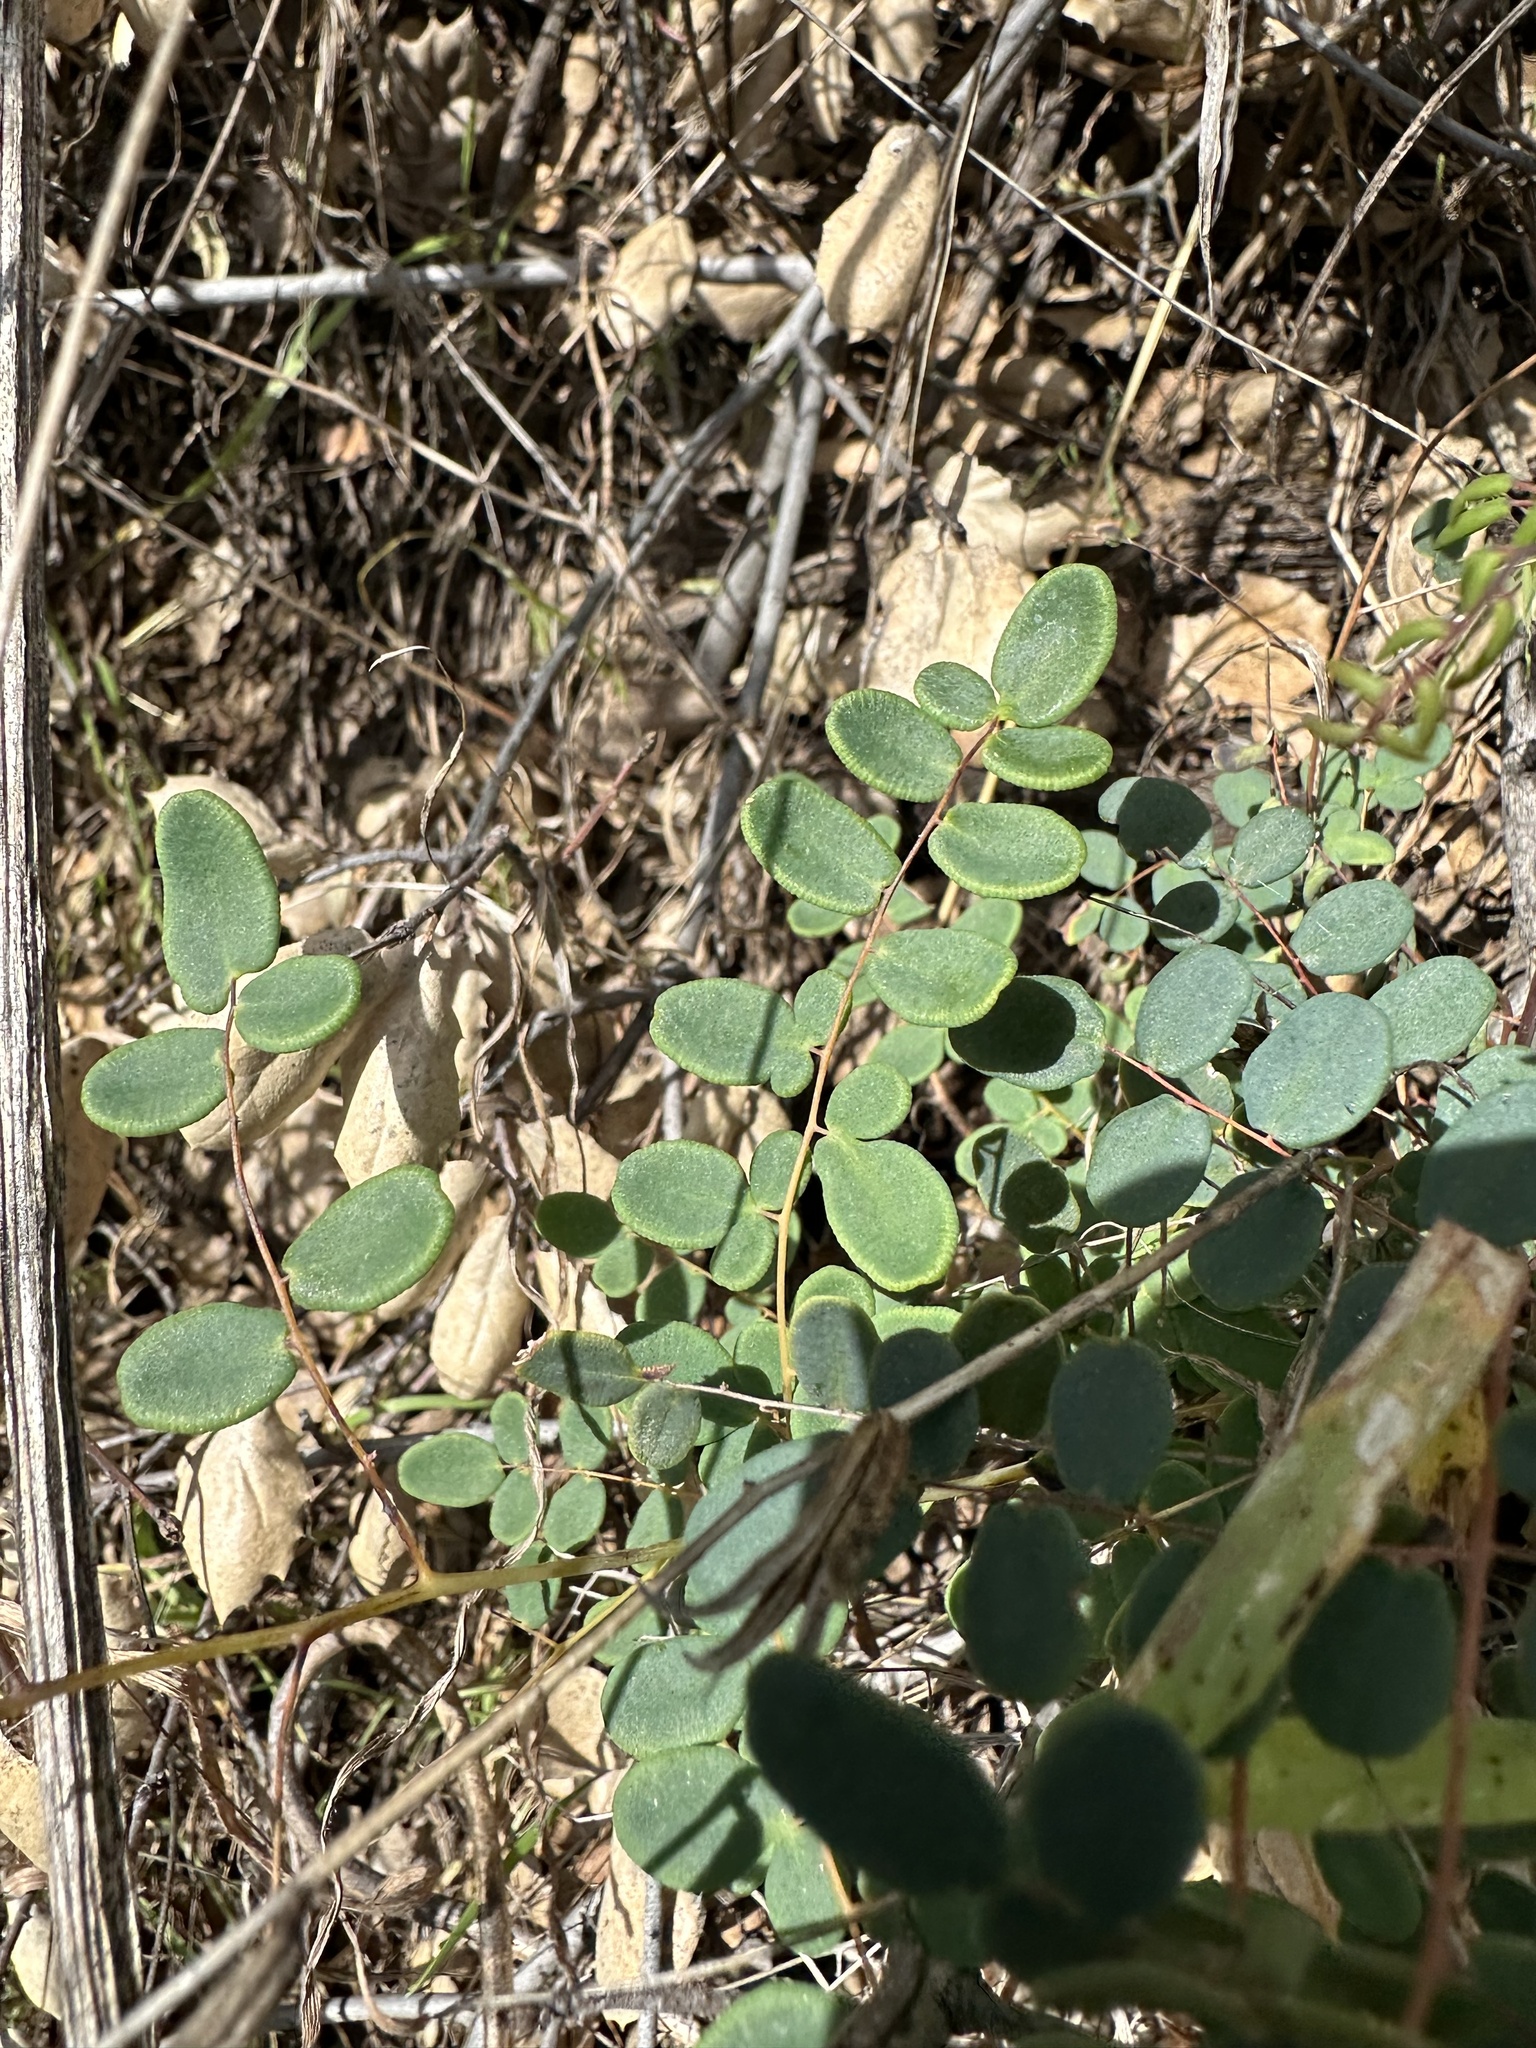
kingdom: Plantae
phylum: Tracheophyta
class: Polypodiopsida
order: Polypodiales
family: Pteridaceae
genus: Pellaea
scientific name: Pellaea andromedifolia
